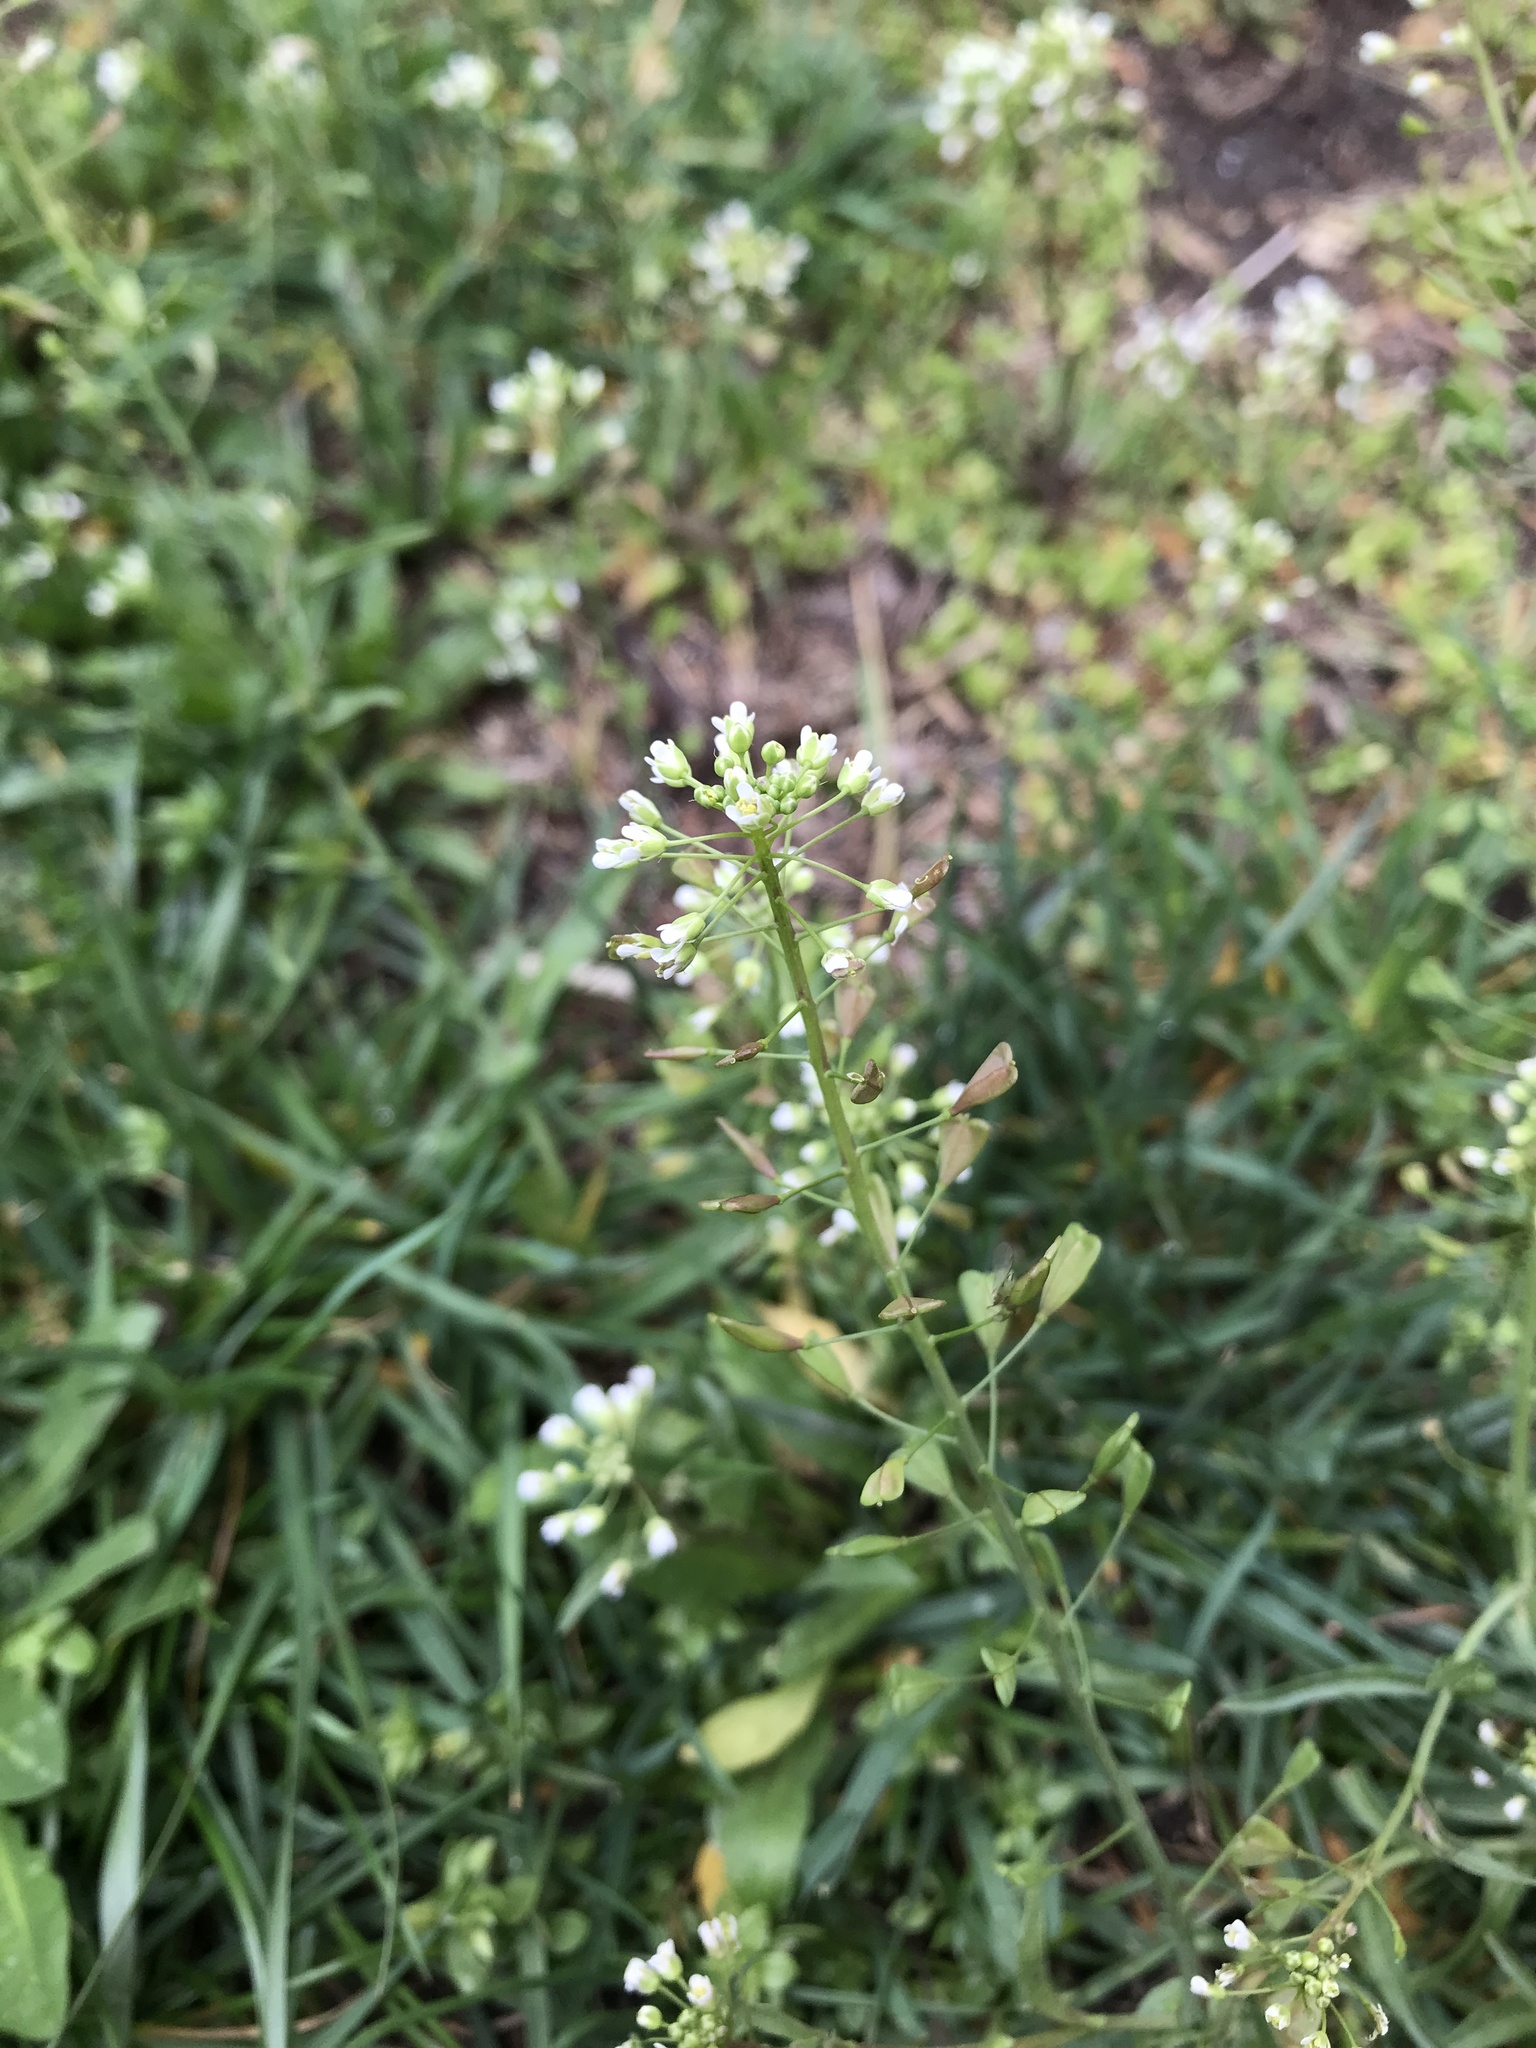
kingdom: Plantae
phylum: Tracheophyta
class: Magnoliopsida
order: Brassicales
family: Brassicaceae
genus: Capsella
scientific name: Capsella bursa-pastoris
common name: Shepherd's purse
